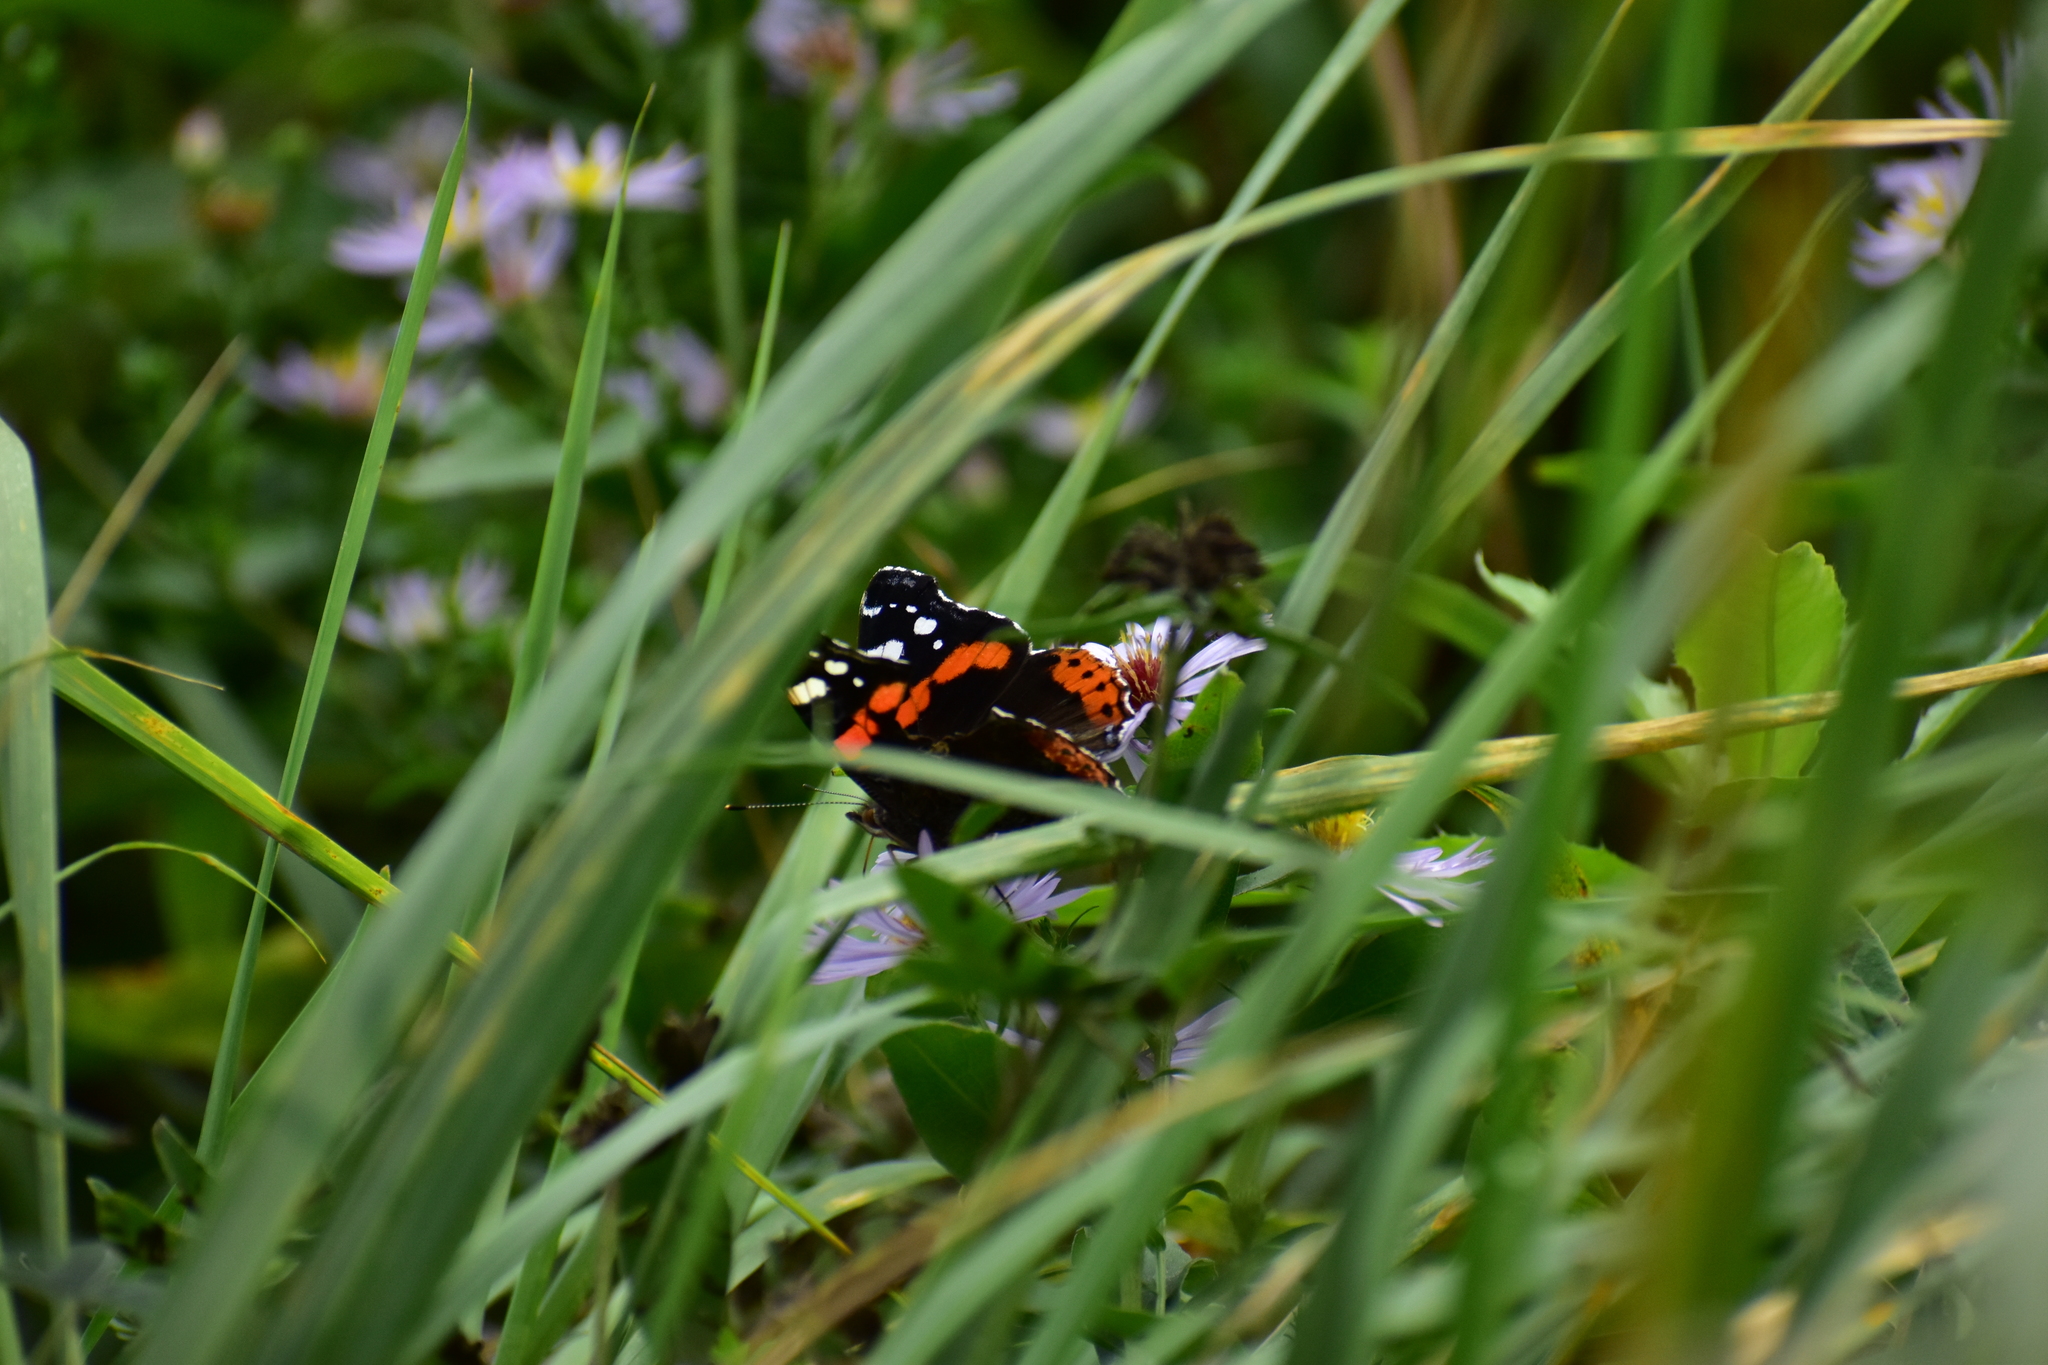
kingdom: Animalia
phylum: Arthropoda
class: Insecta
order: Lepidoptera
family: Nymphalidae
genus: Vanessa
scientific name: Vanessa atalanta
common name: Red admiral
